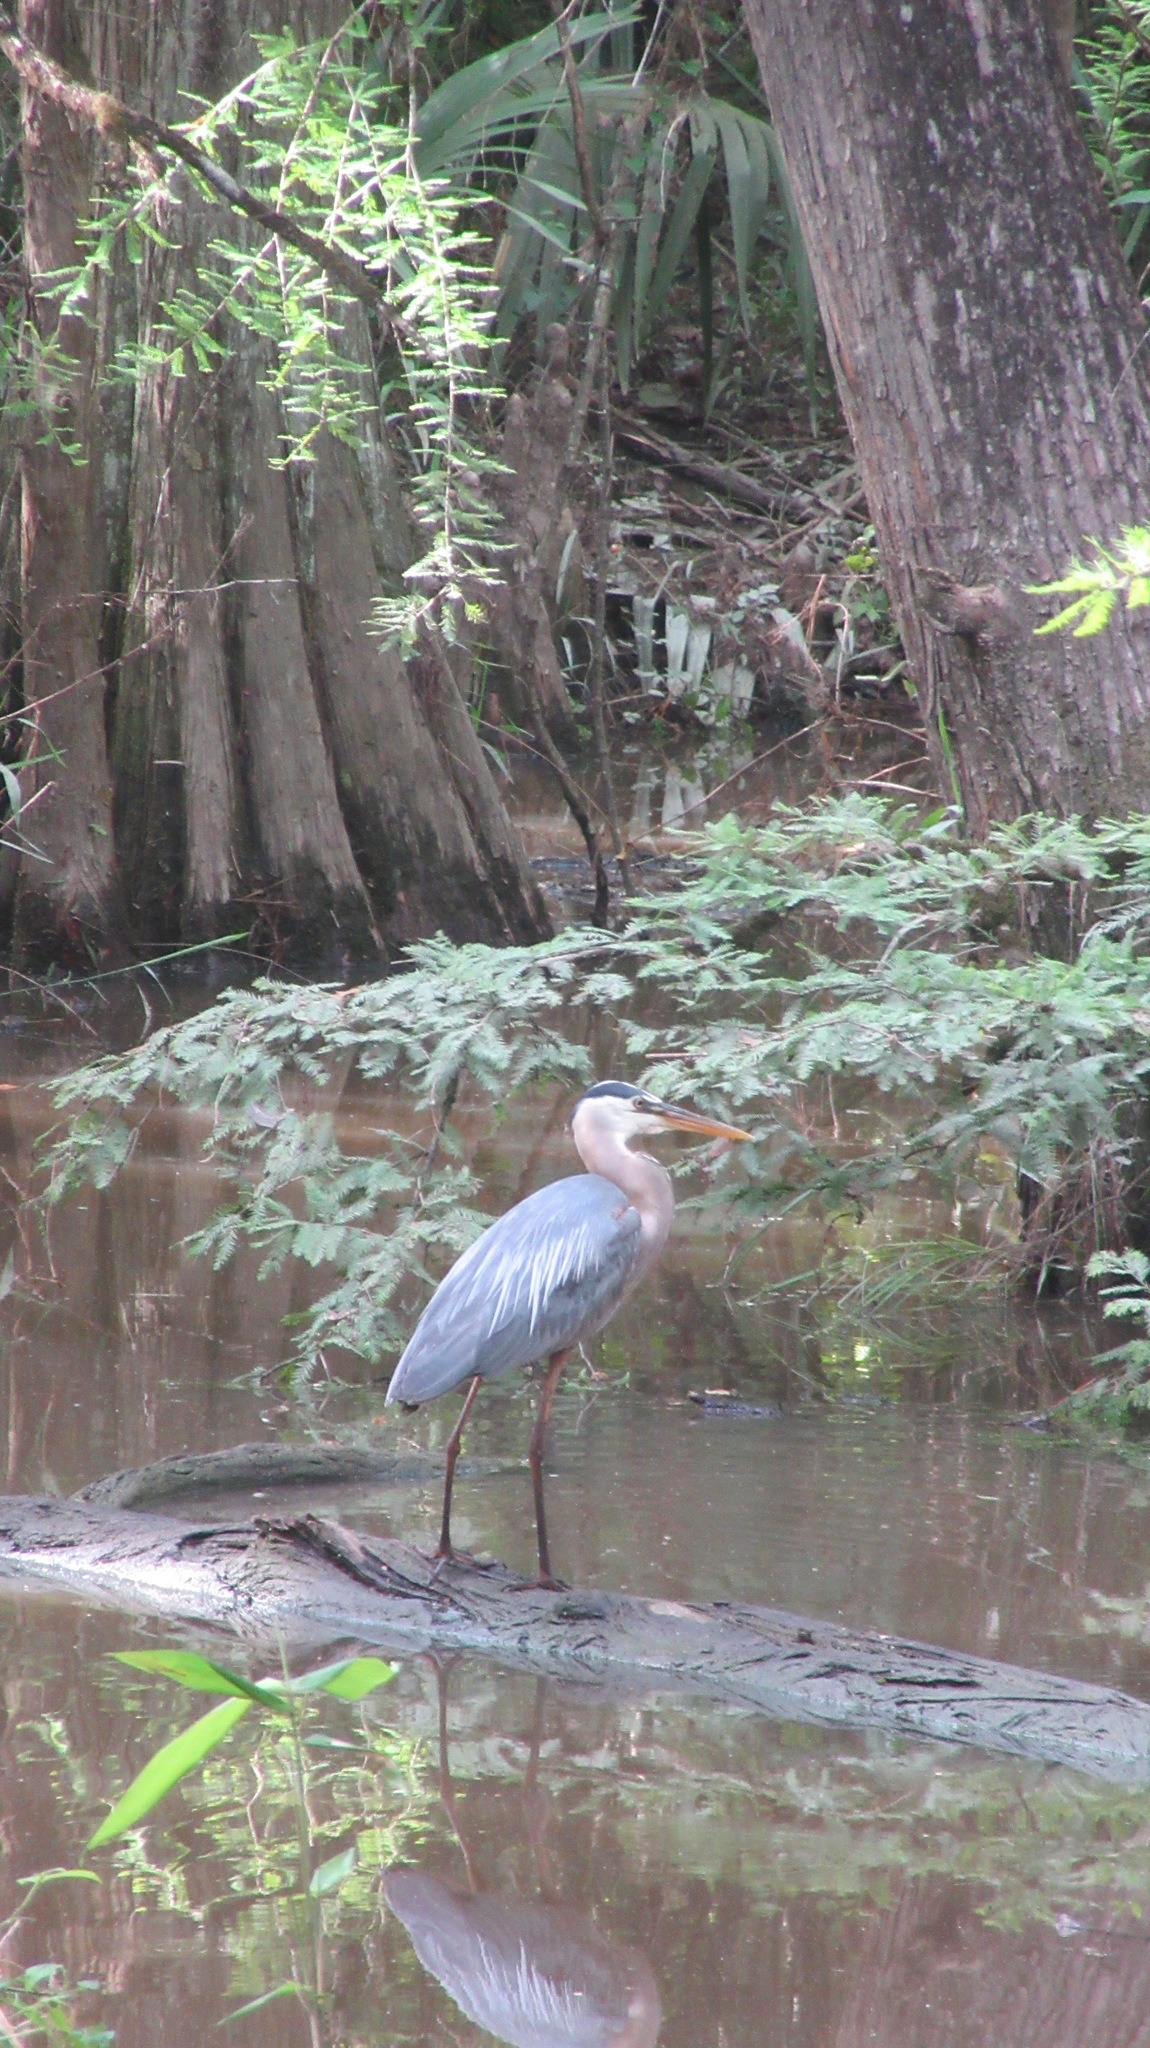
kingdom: Animalia
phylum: Chordata
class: Aves
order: Pelecaniformes
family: Ardeidae
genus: Ardea
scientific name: Ardea herodias
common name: Great blue heron
